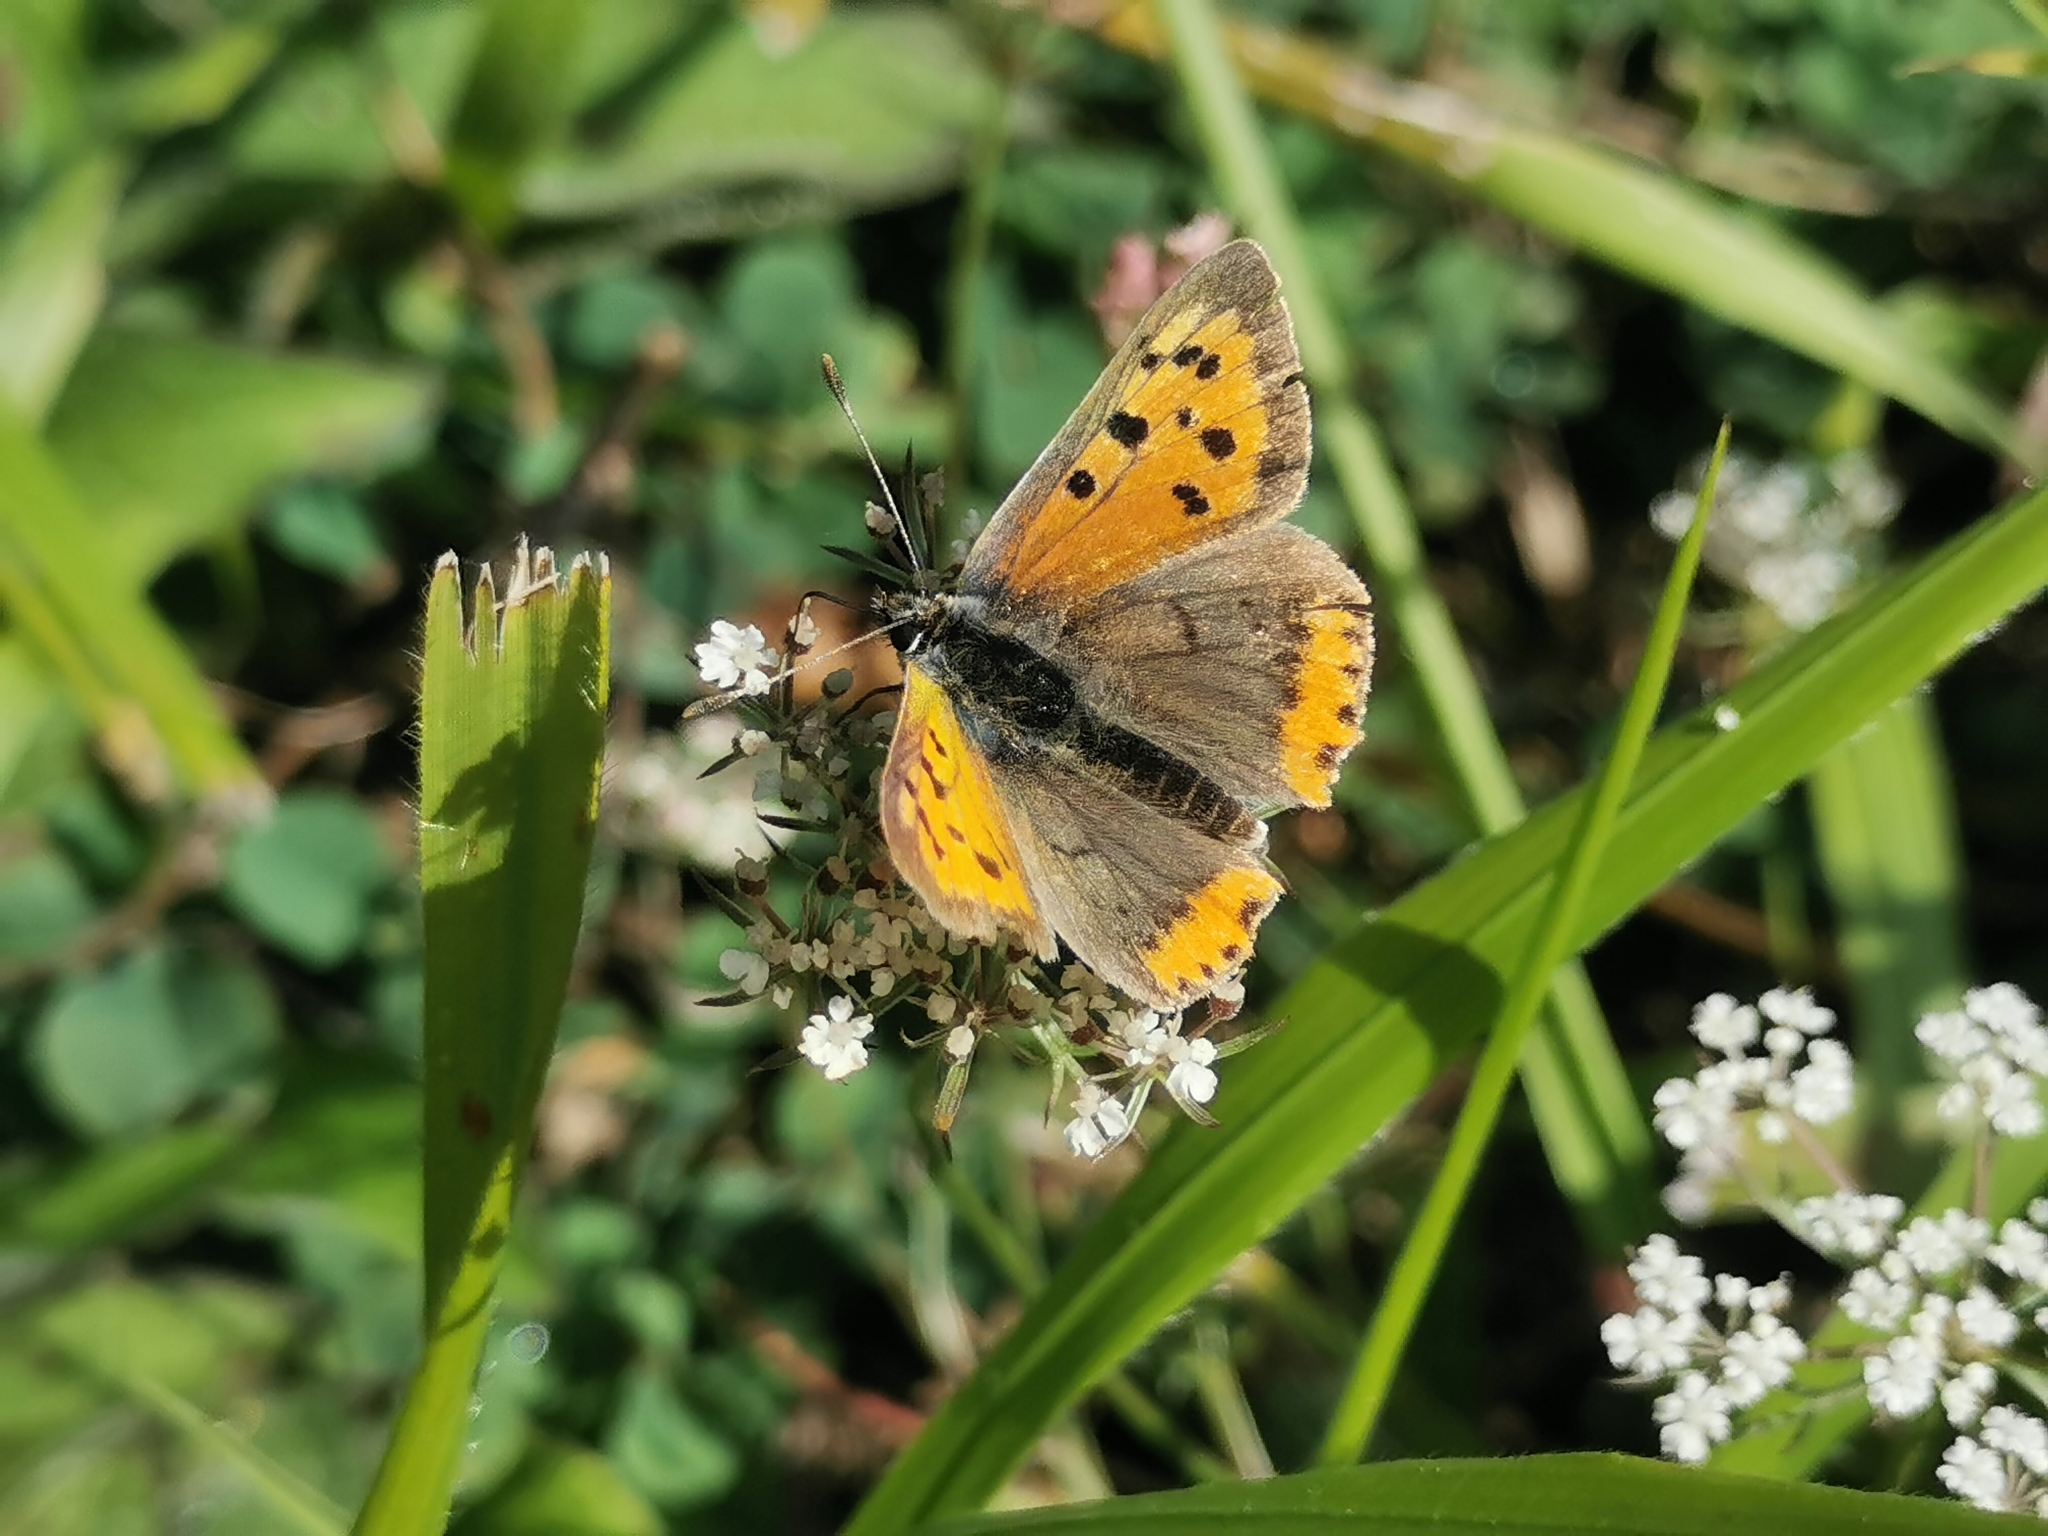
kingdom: Animalia
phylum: Arthropoda
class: Insecta
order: Lepidoptera
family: Lycaenidae
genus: Lycaena
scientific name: Lycaena phlaeas
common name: Small copper
